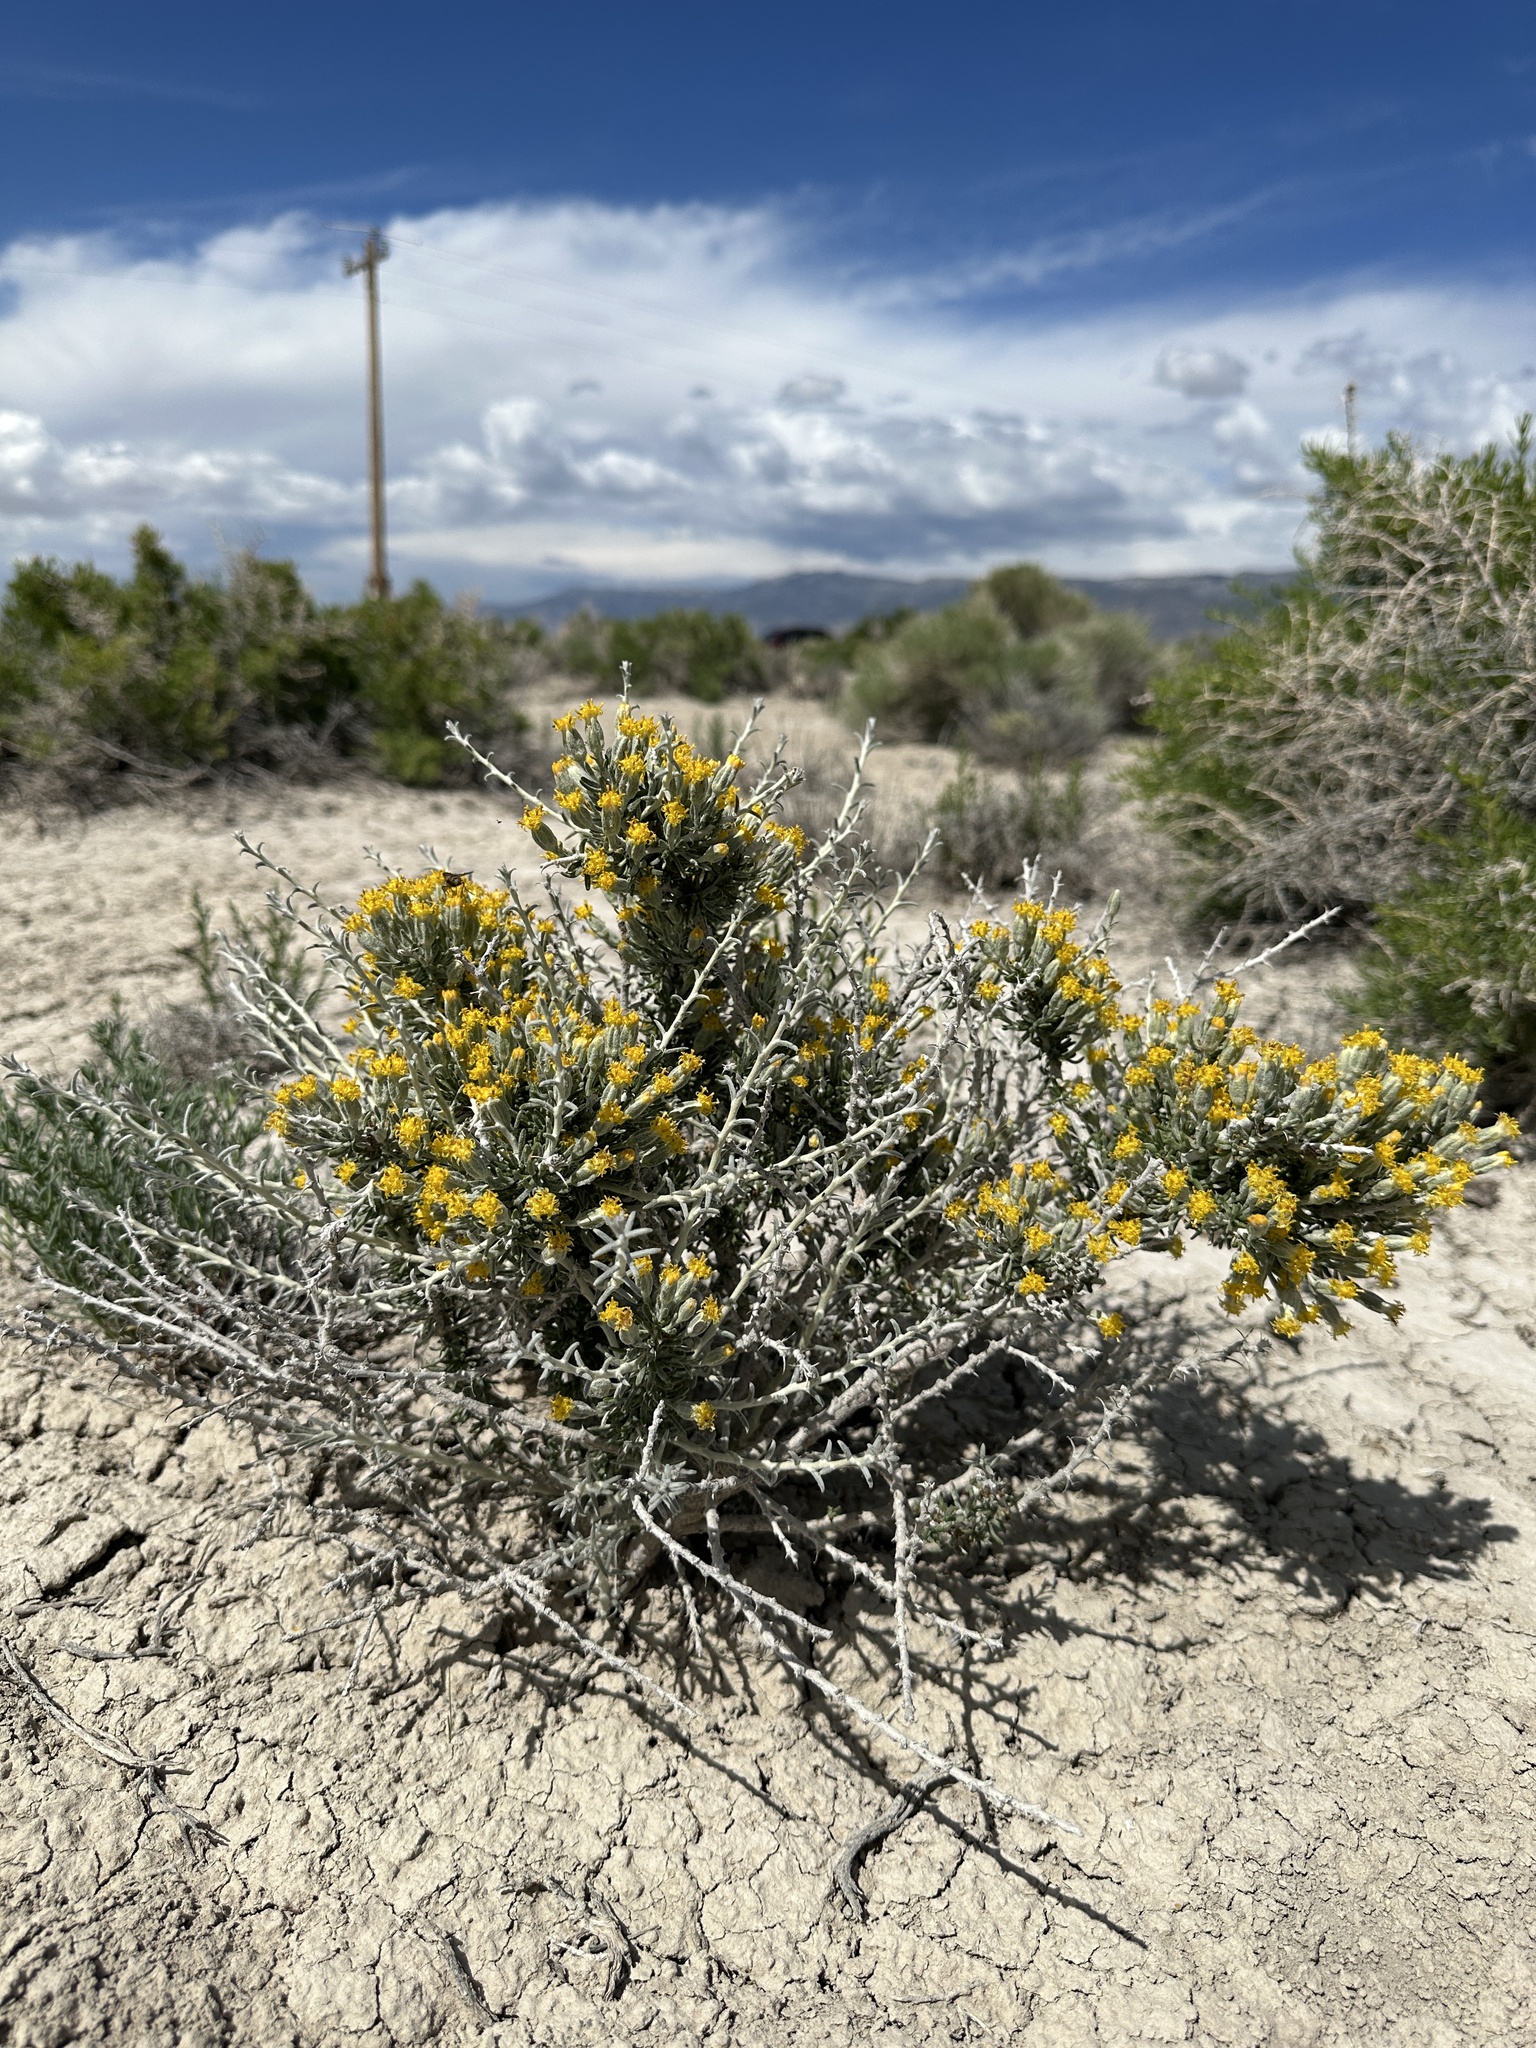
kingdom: Plantae
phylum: Tracheophyta
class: Magnoliopsida
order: Asterales
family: Asteraceae
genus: Tetradymia
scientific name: Tetradymia spinosa
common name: Thorny horsebrush
